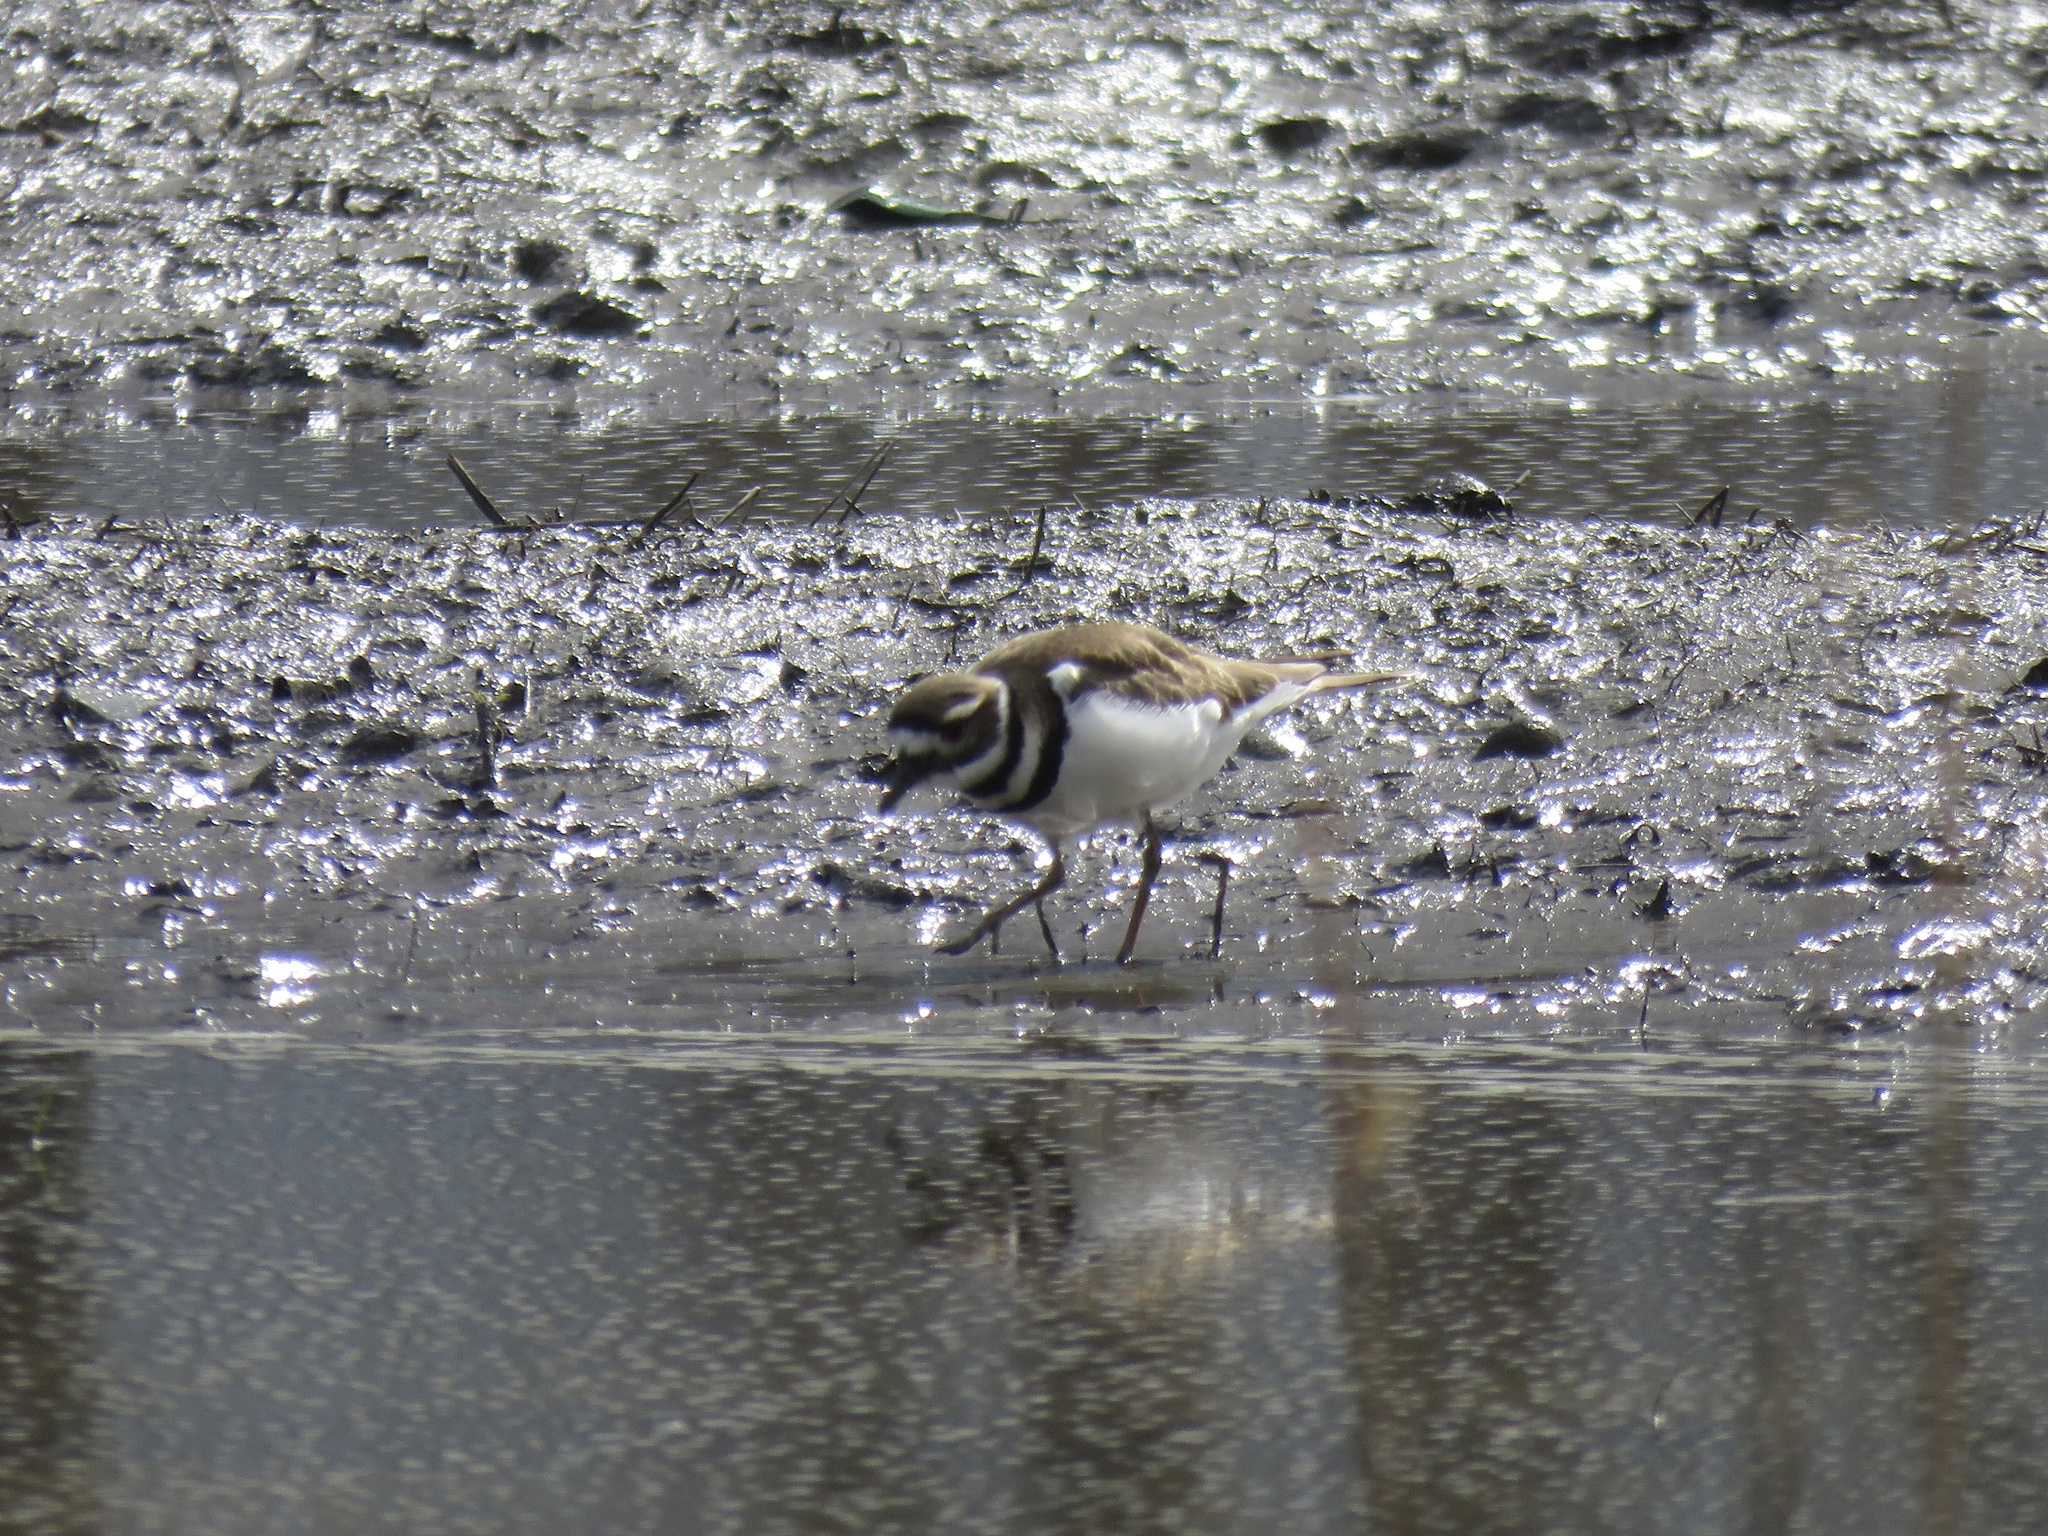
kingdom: Animalia
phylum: Chordata
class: Aves
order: Charadriiformes
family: Charadriidae
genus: Charadrius
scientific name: Charadrius vociferus
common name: Killdeer
